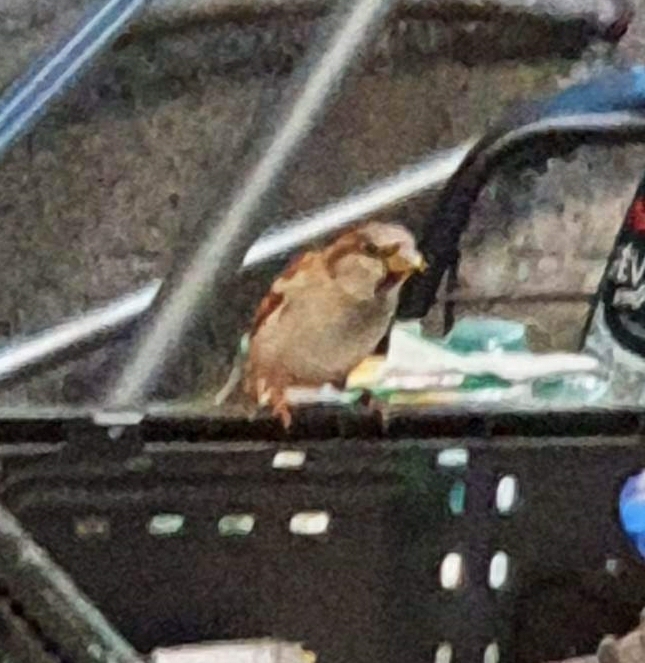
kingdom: Animalia
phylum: Chordata
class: Aves
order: Passeriformes
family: Passeridae
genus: Passer
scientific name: Passer domesticus
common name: House sparrow
